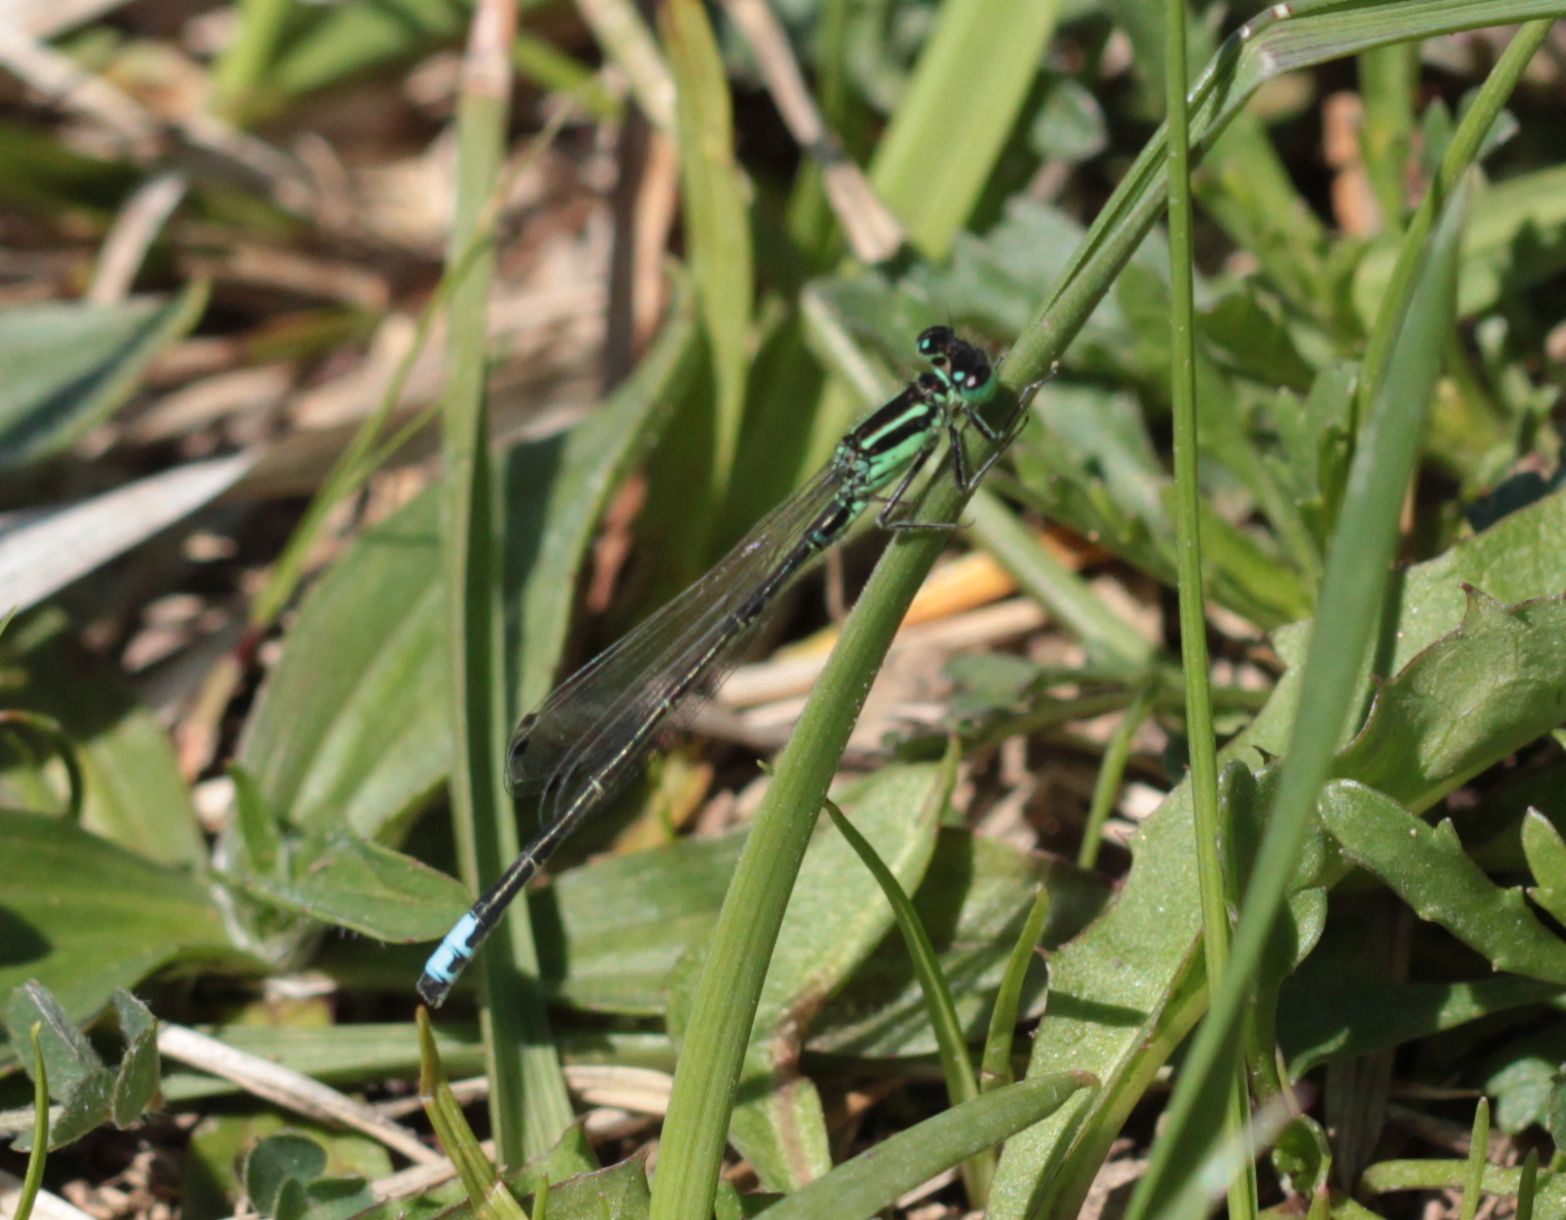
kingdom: Animalia
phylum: Arthropoda
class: Insecta
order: Odonata
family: Coenagrionidae
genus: Ischnura
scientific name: Ischnura verticalis
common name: Eastern forktail
